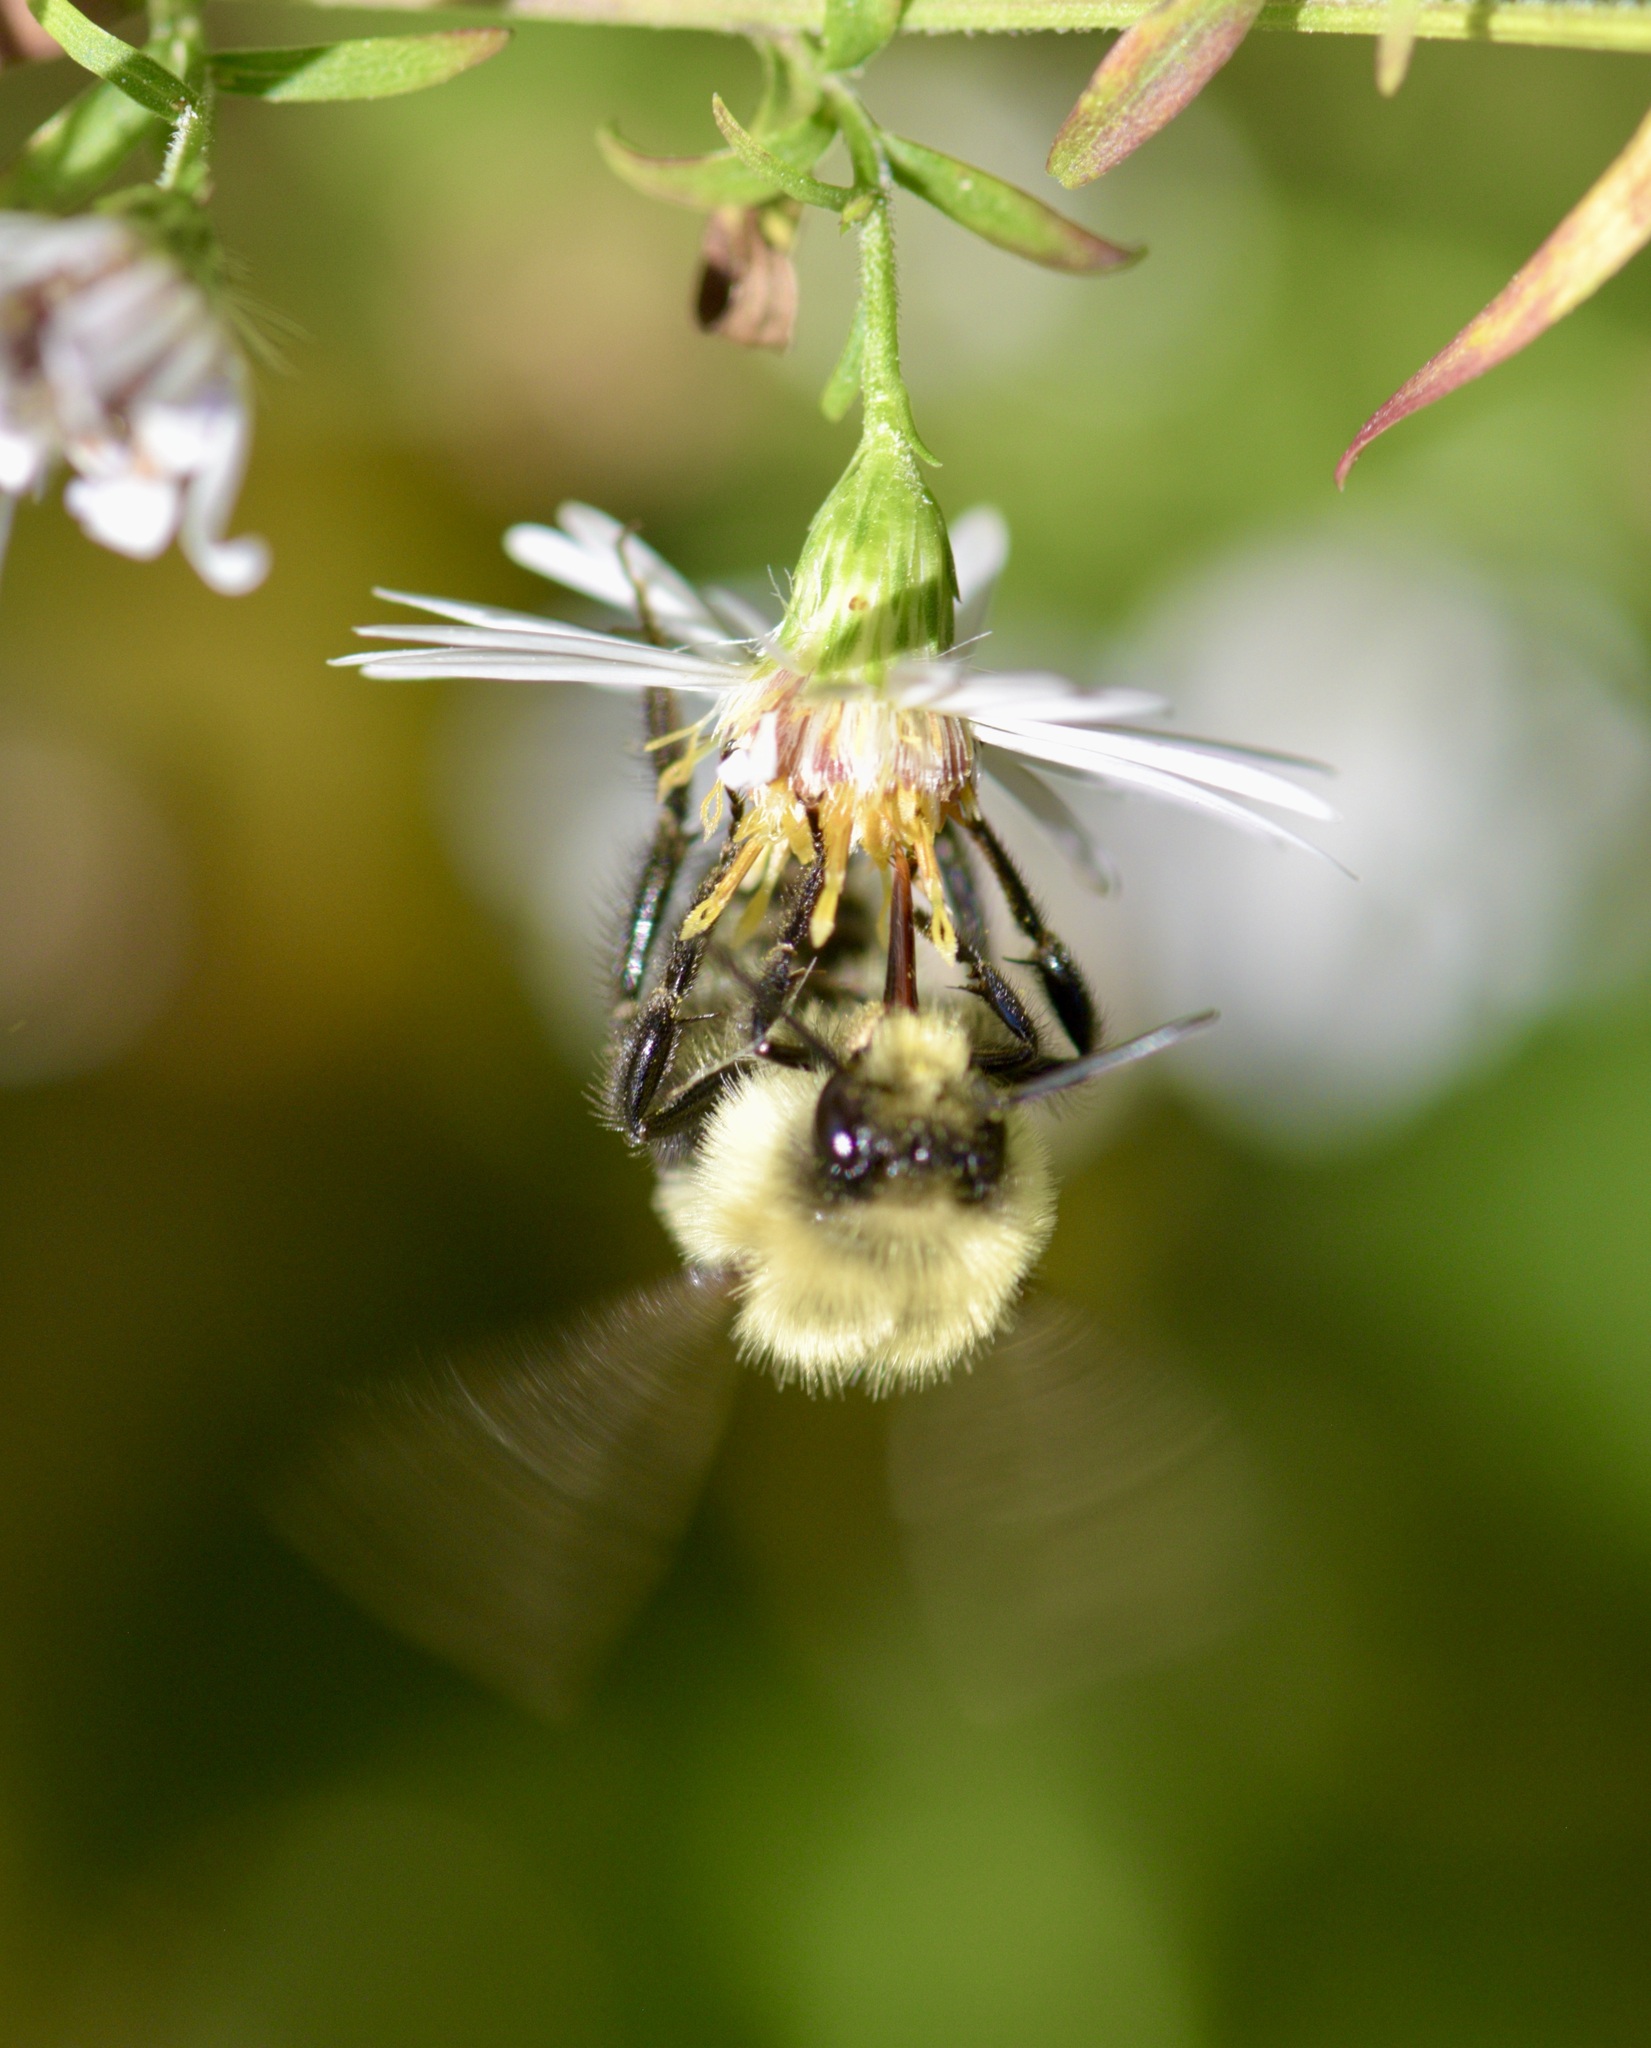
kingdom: Animalia
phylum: Arthropoda
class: Insecta
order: Hymenoptera
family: Apidae
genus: Bombus
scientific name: Bombus impatiens
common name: Common eastern bumble bee
